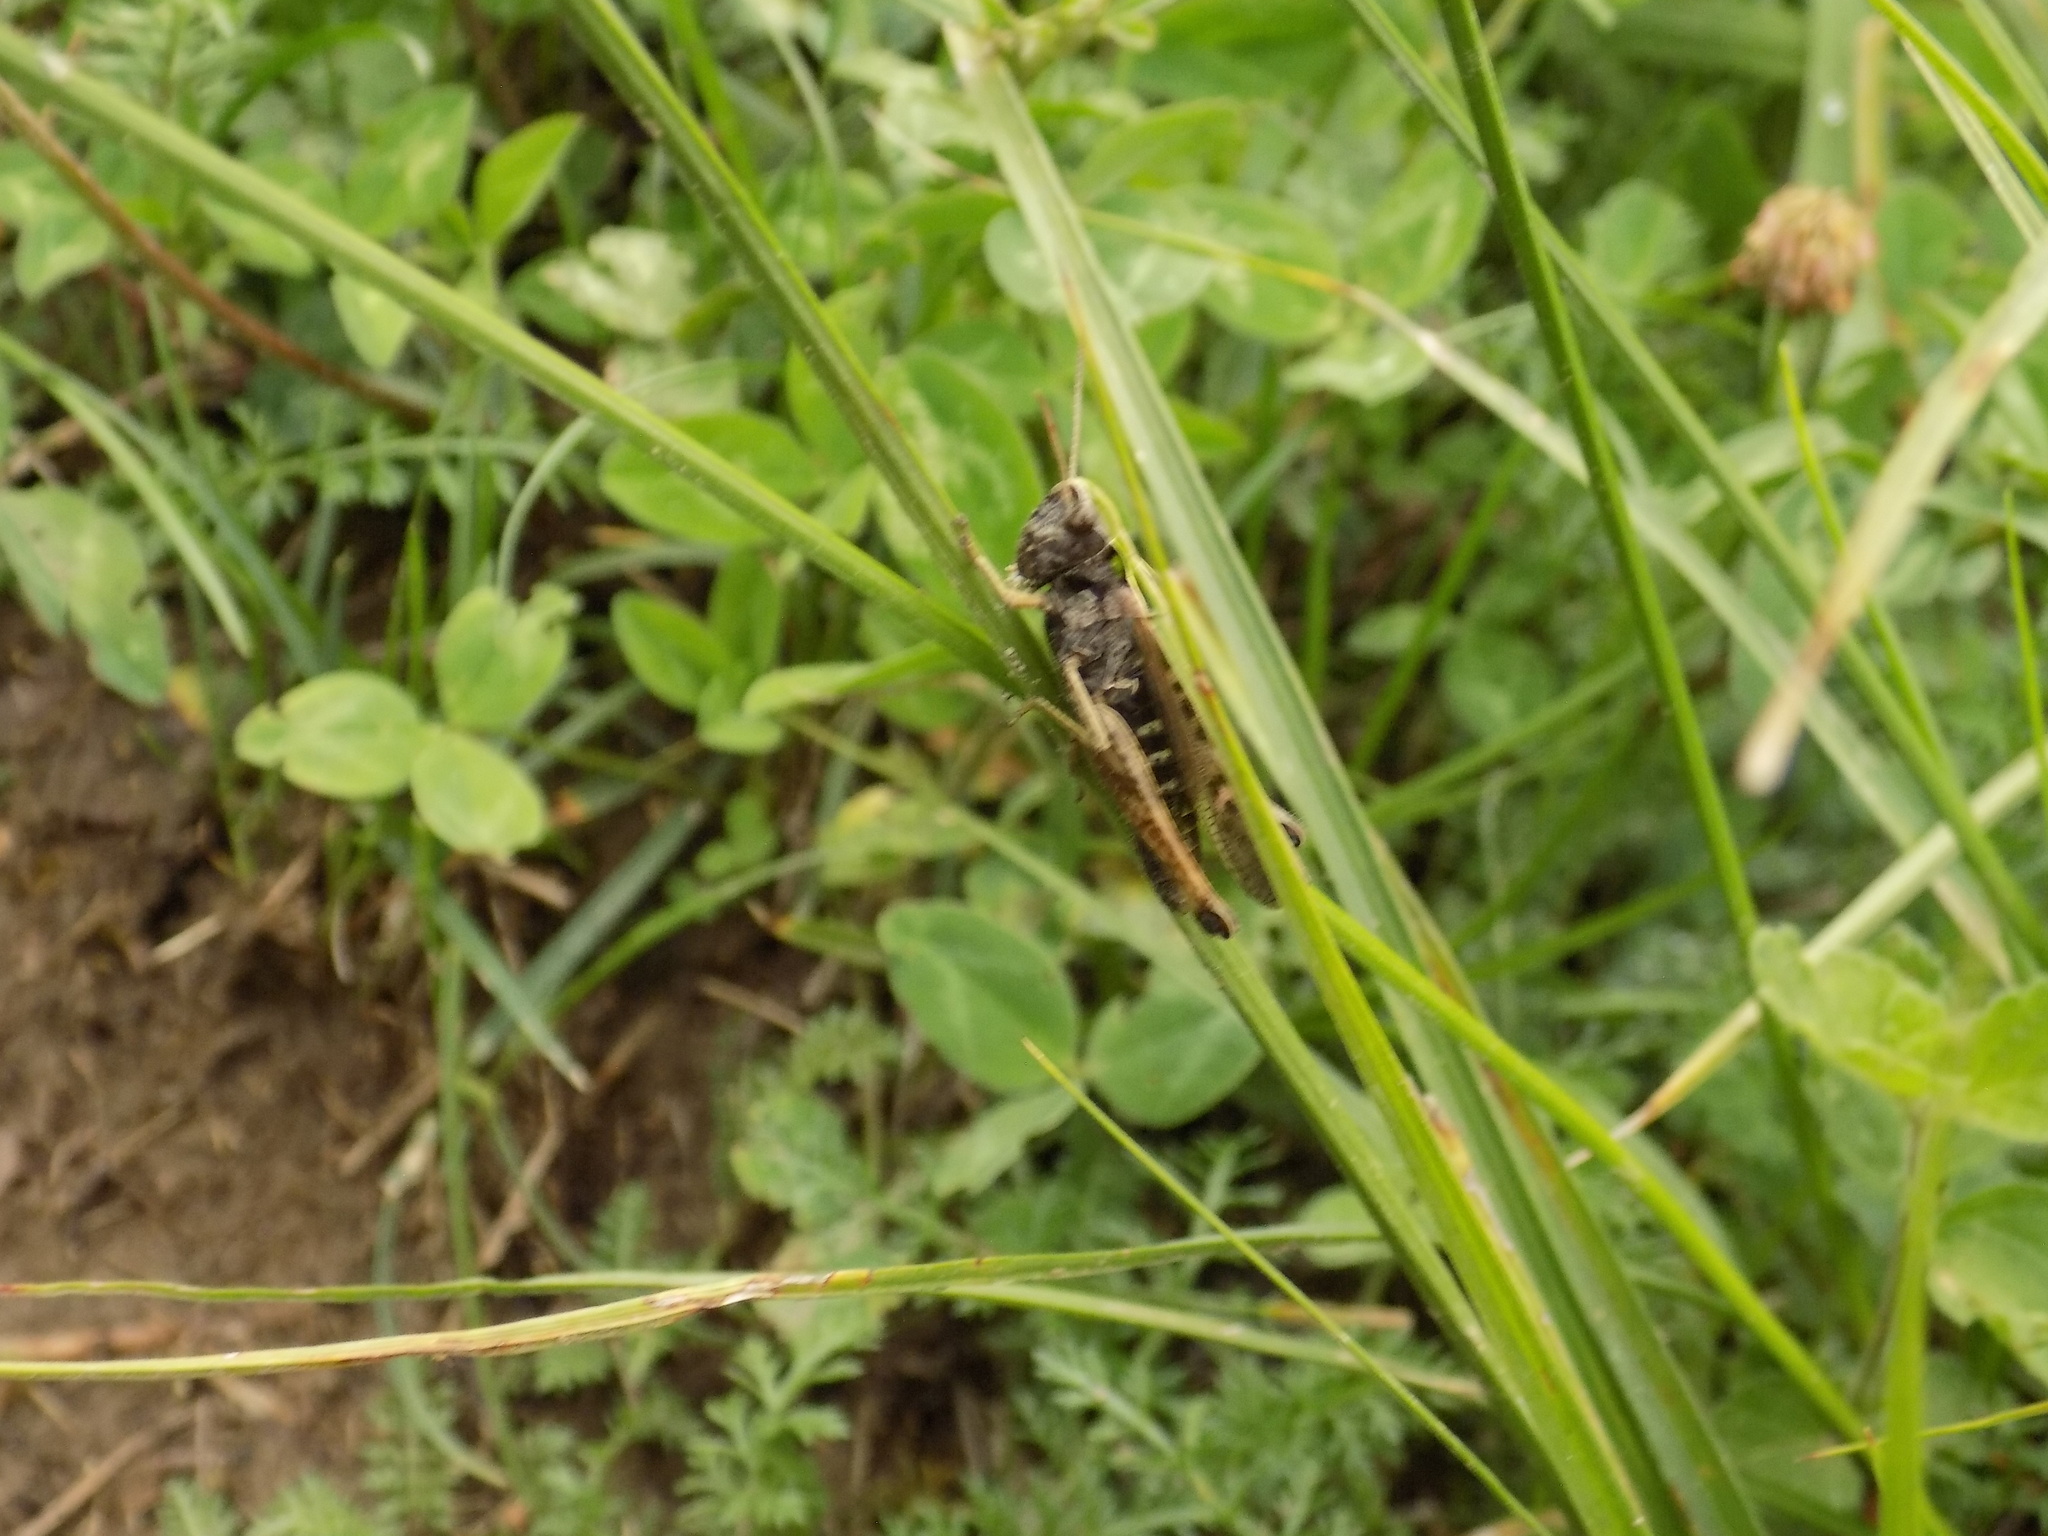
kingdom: Animalia
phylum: Arthropoda
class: Insecta
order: Orthoptera
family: Acrididae
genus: Omocestus
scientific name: Omocestus viridulus
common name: Common green grasshopper
